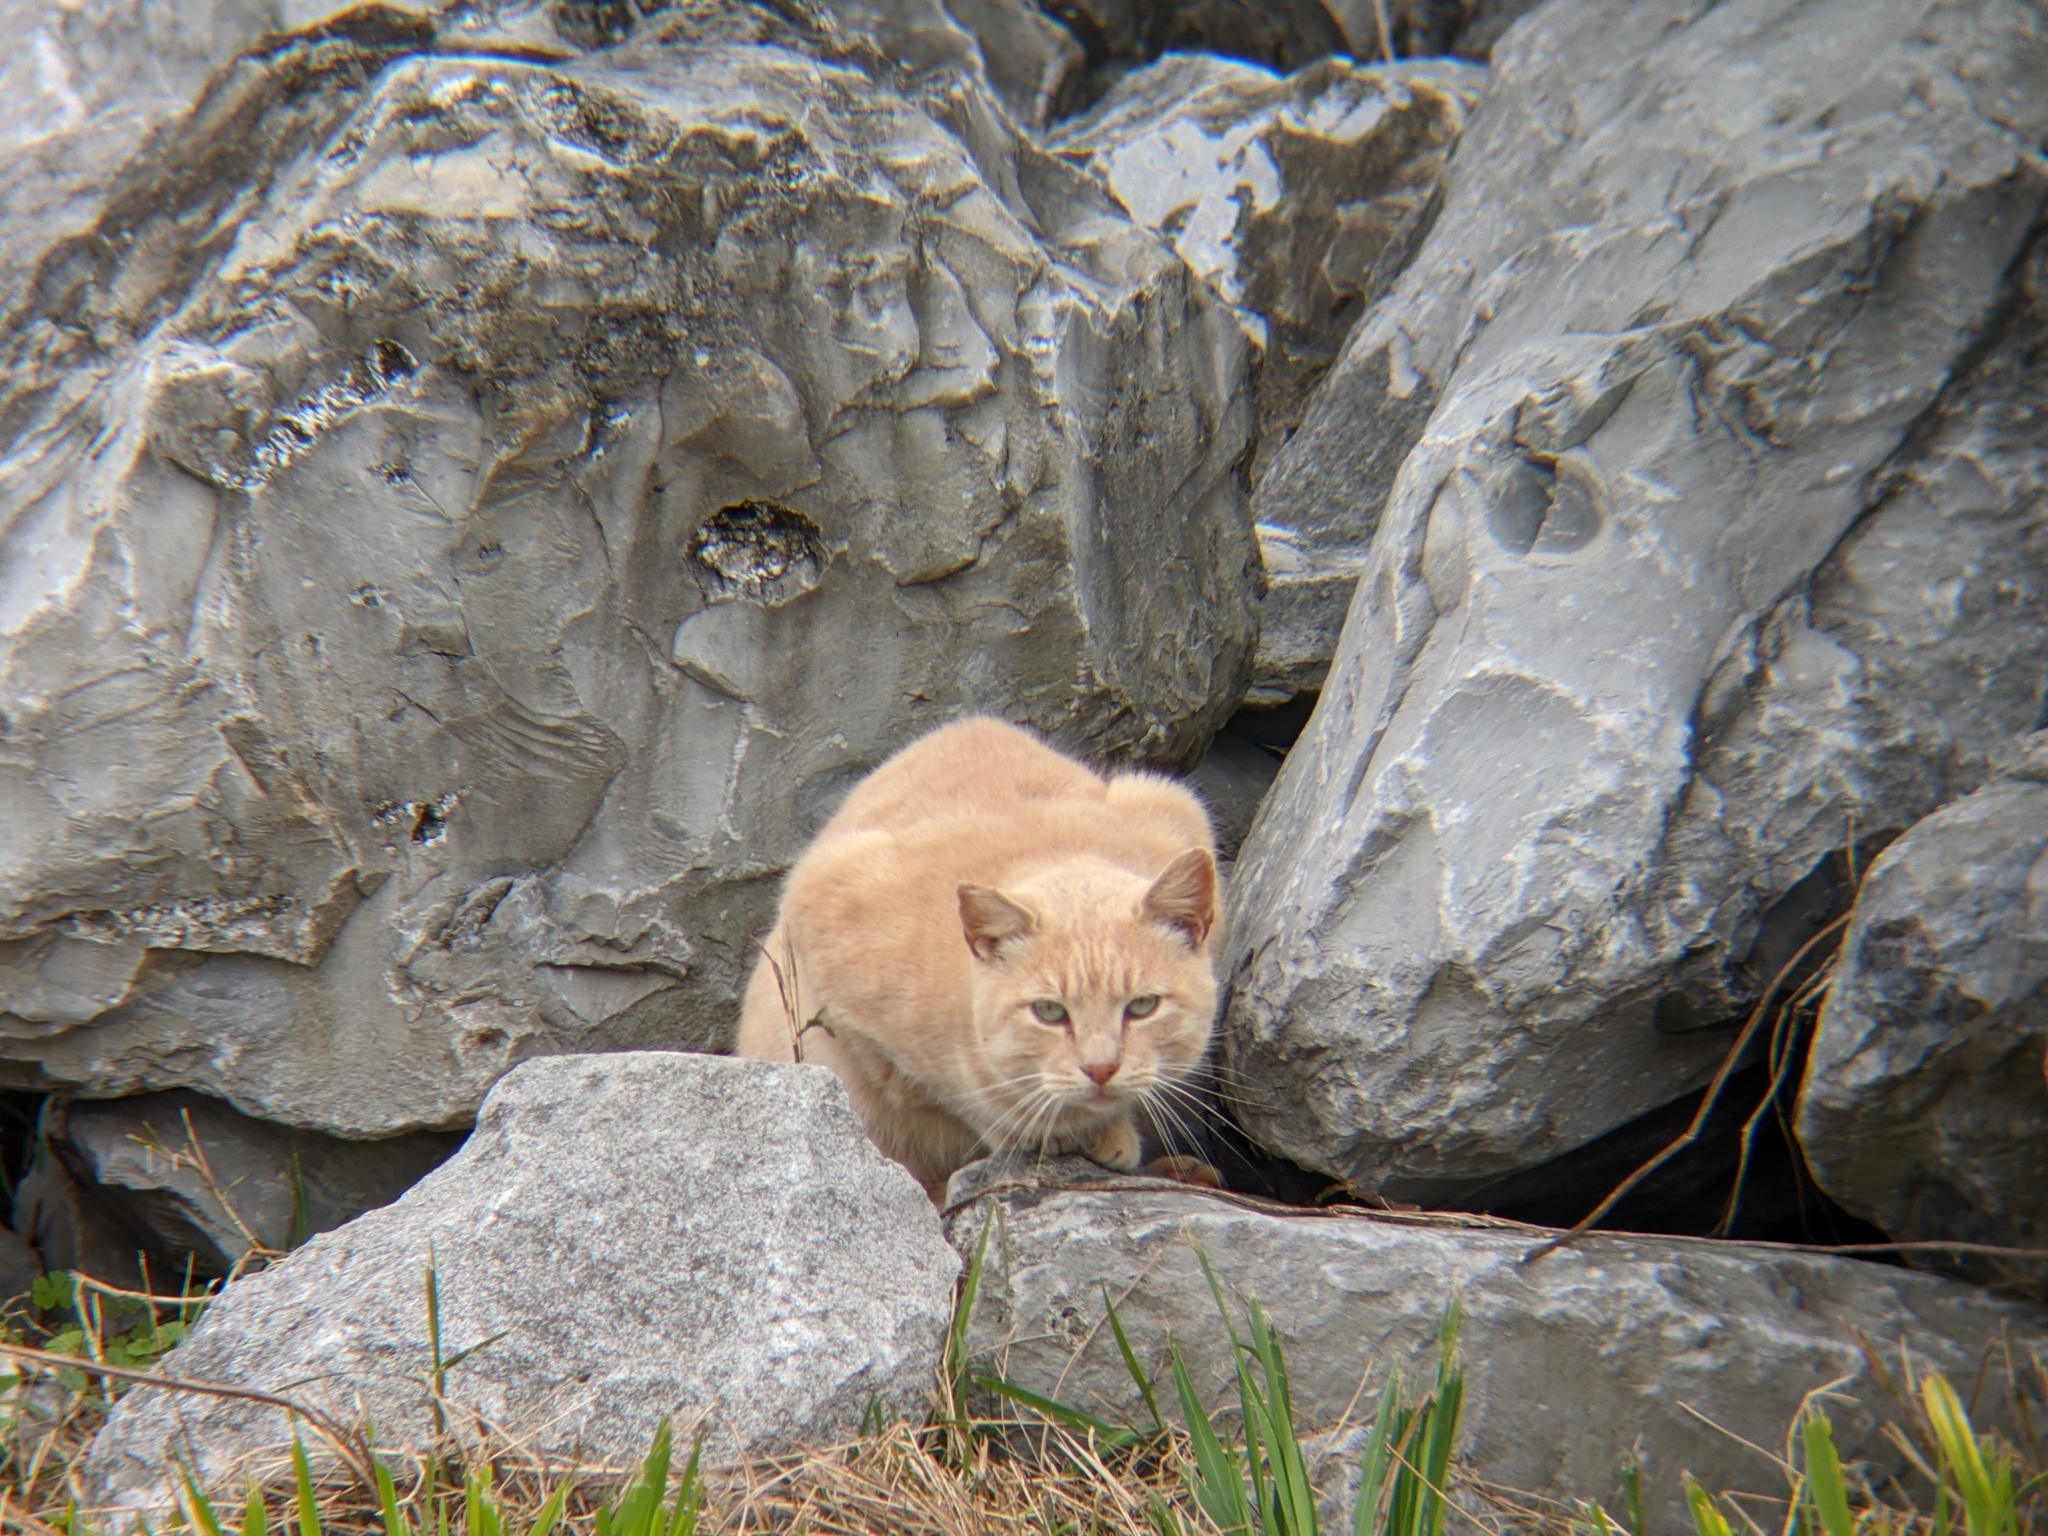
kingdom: Animalia
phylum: Chordata
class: Mammalia
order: Carnivora
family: Felidae
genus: Felis
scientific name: Felis catus
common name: Domestic cat
